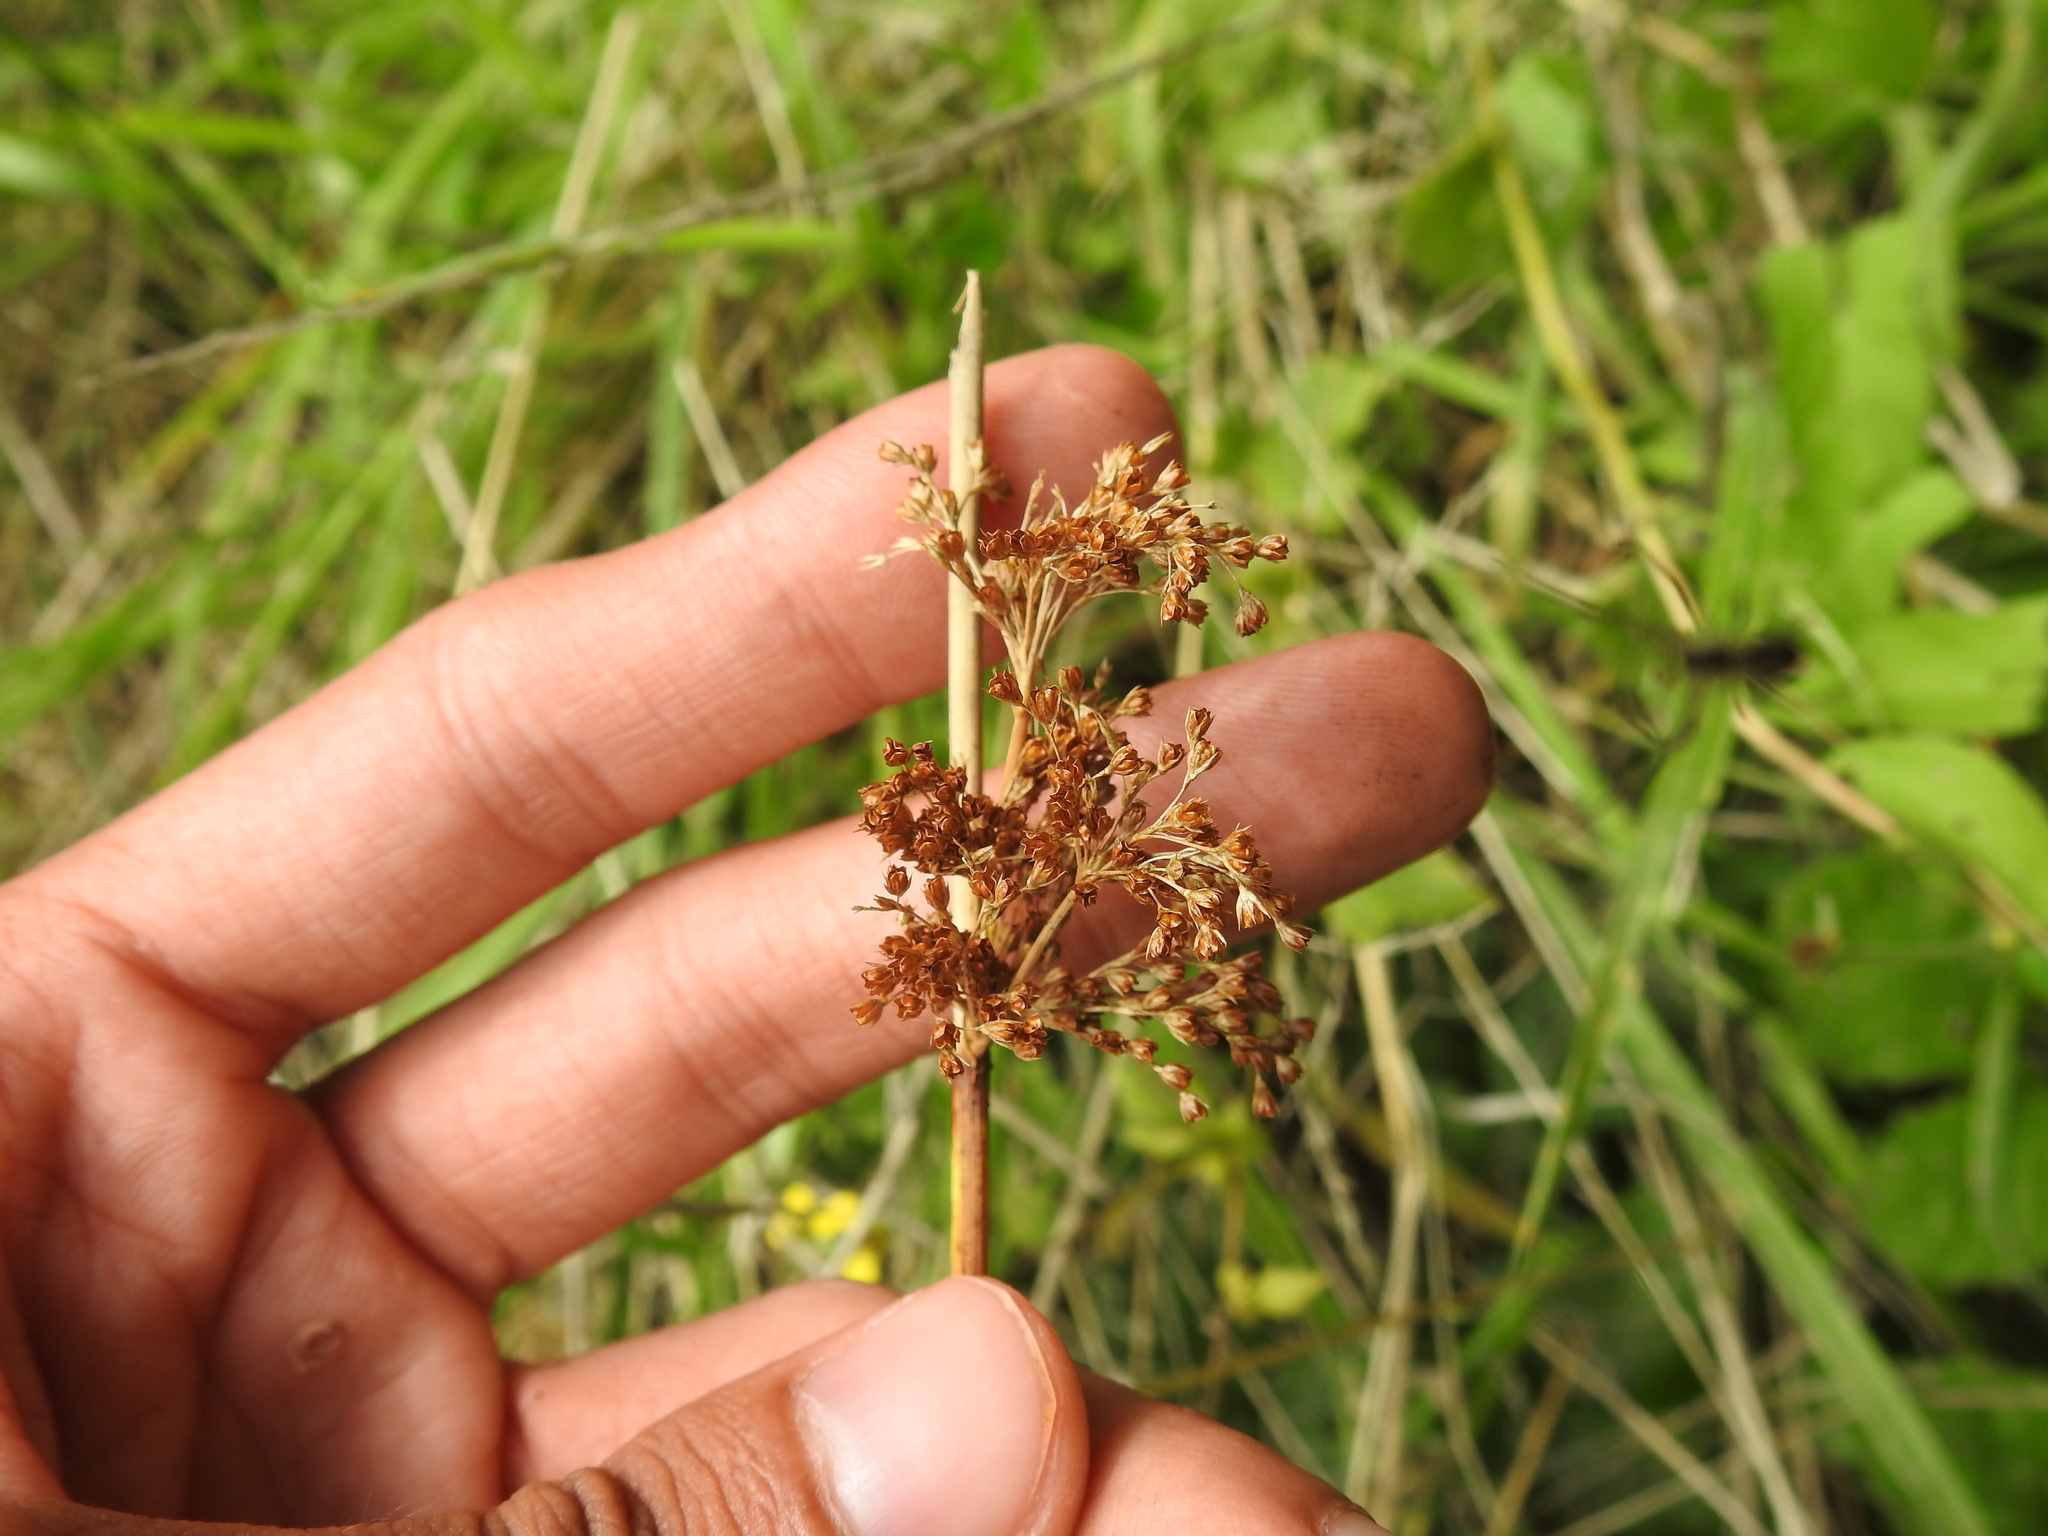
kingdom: Plantae
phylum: Tracheophyta
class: Liliopsida
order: Poales
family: Juncaceae
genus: Juncus
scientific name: Juncus effusus
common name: Soft rush
